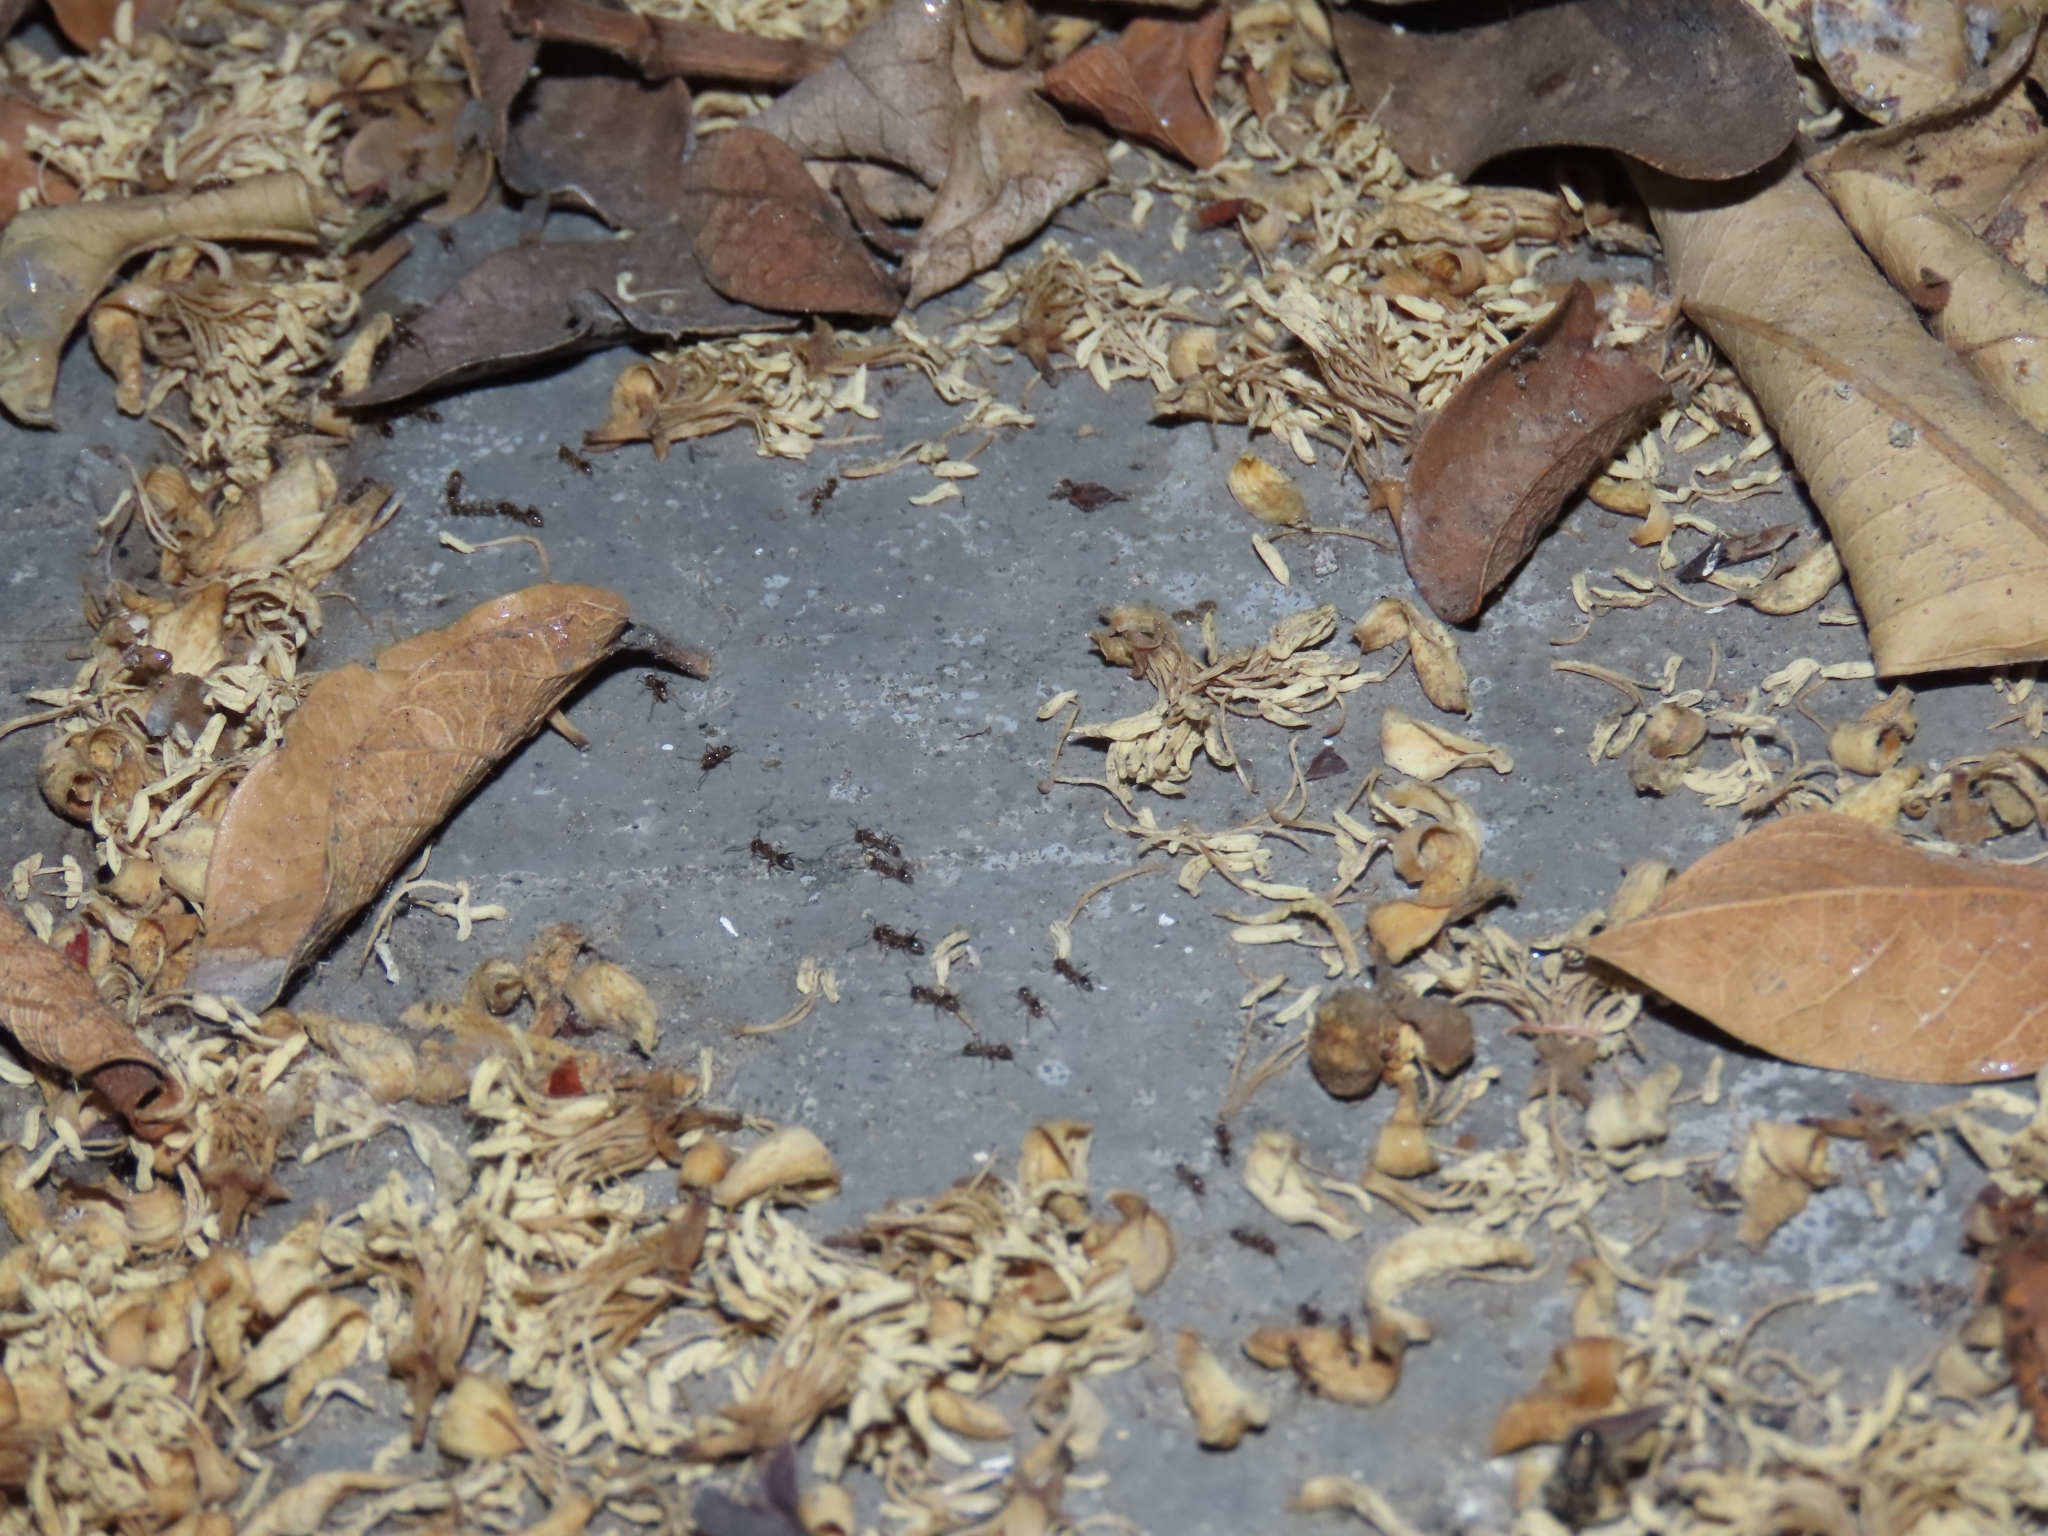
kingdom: Animalia
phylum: Arthropoda
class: Insecta
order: Hymenoptera
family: Formicidae
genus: Linepithema
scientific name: Linepithema humile
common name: Argentine ant
